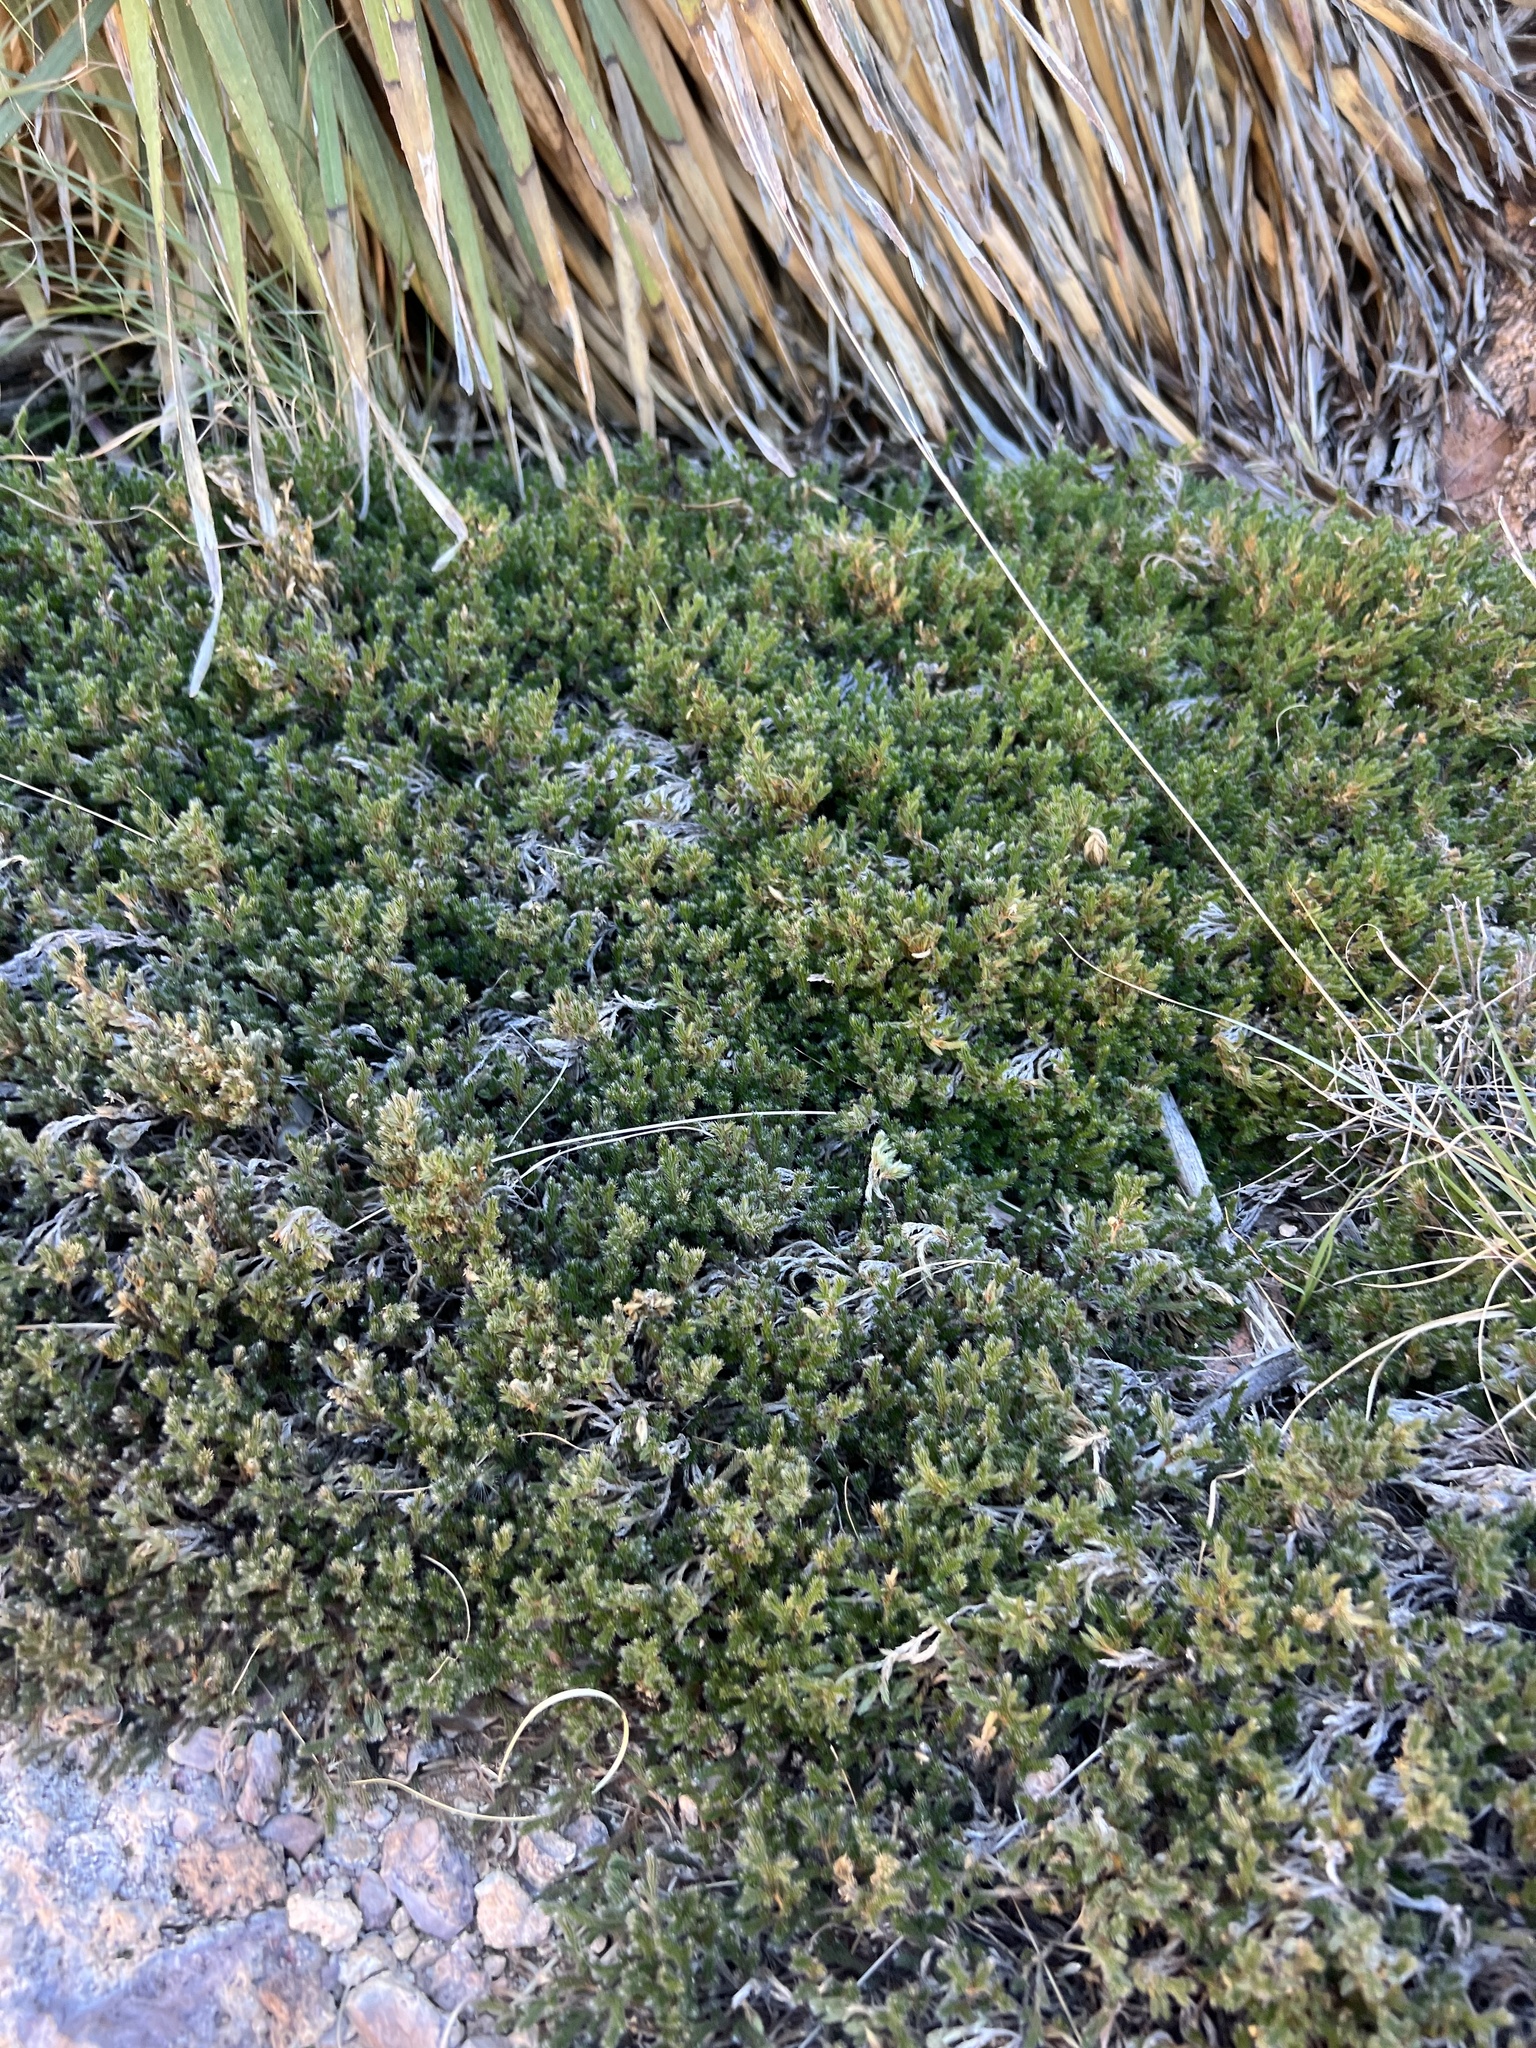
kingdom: Plantae
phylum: Tracheophyta
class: Lycopodiopsida
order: Selaginellales
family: Selaginellaceae
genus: Selaginella
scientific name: Selaginella rupincola
